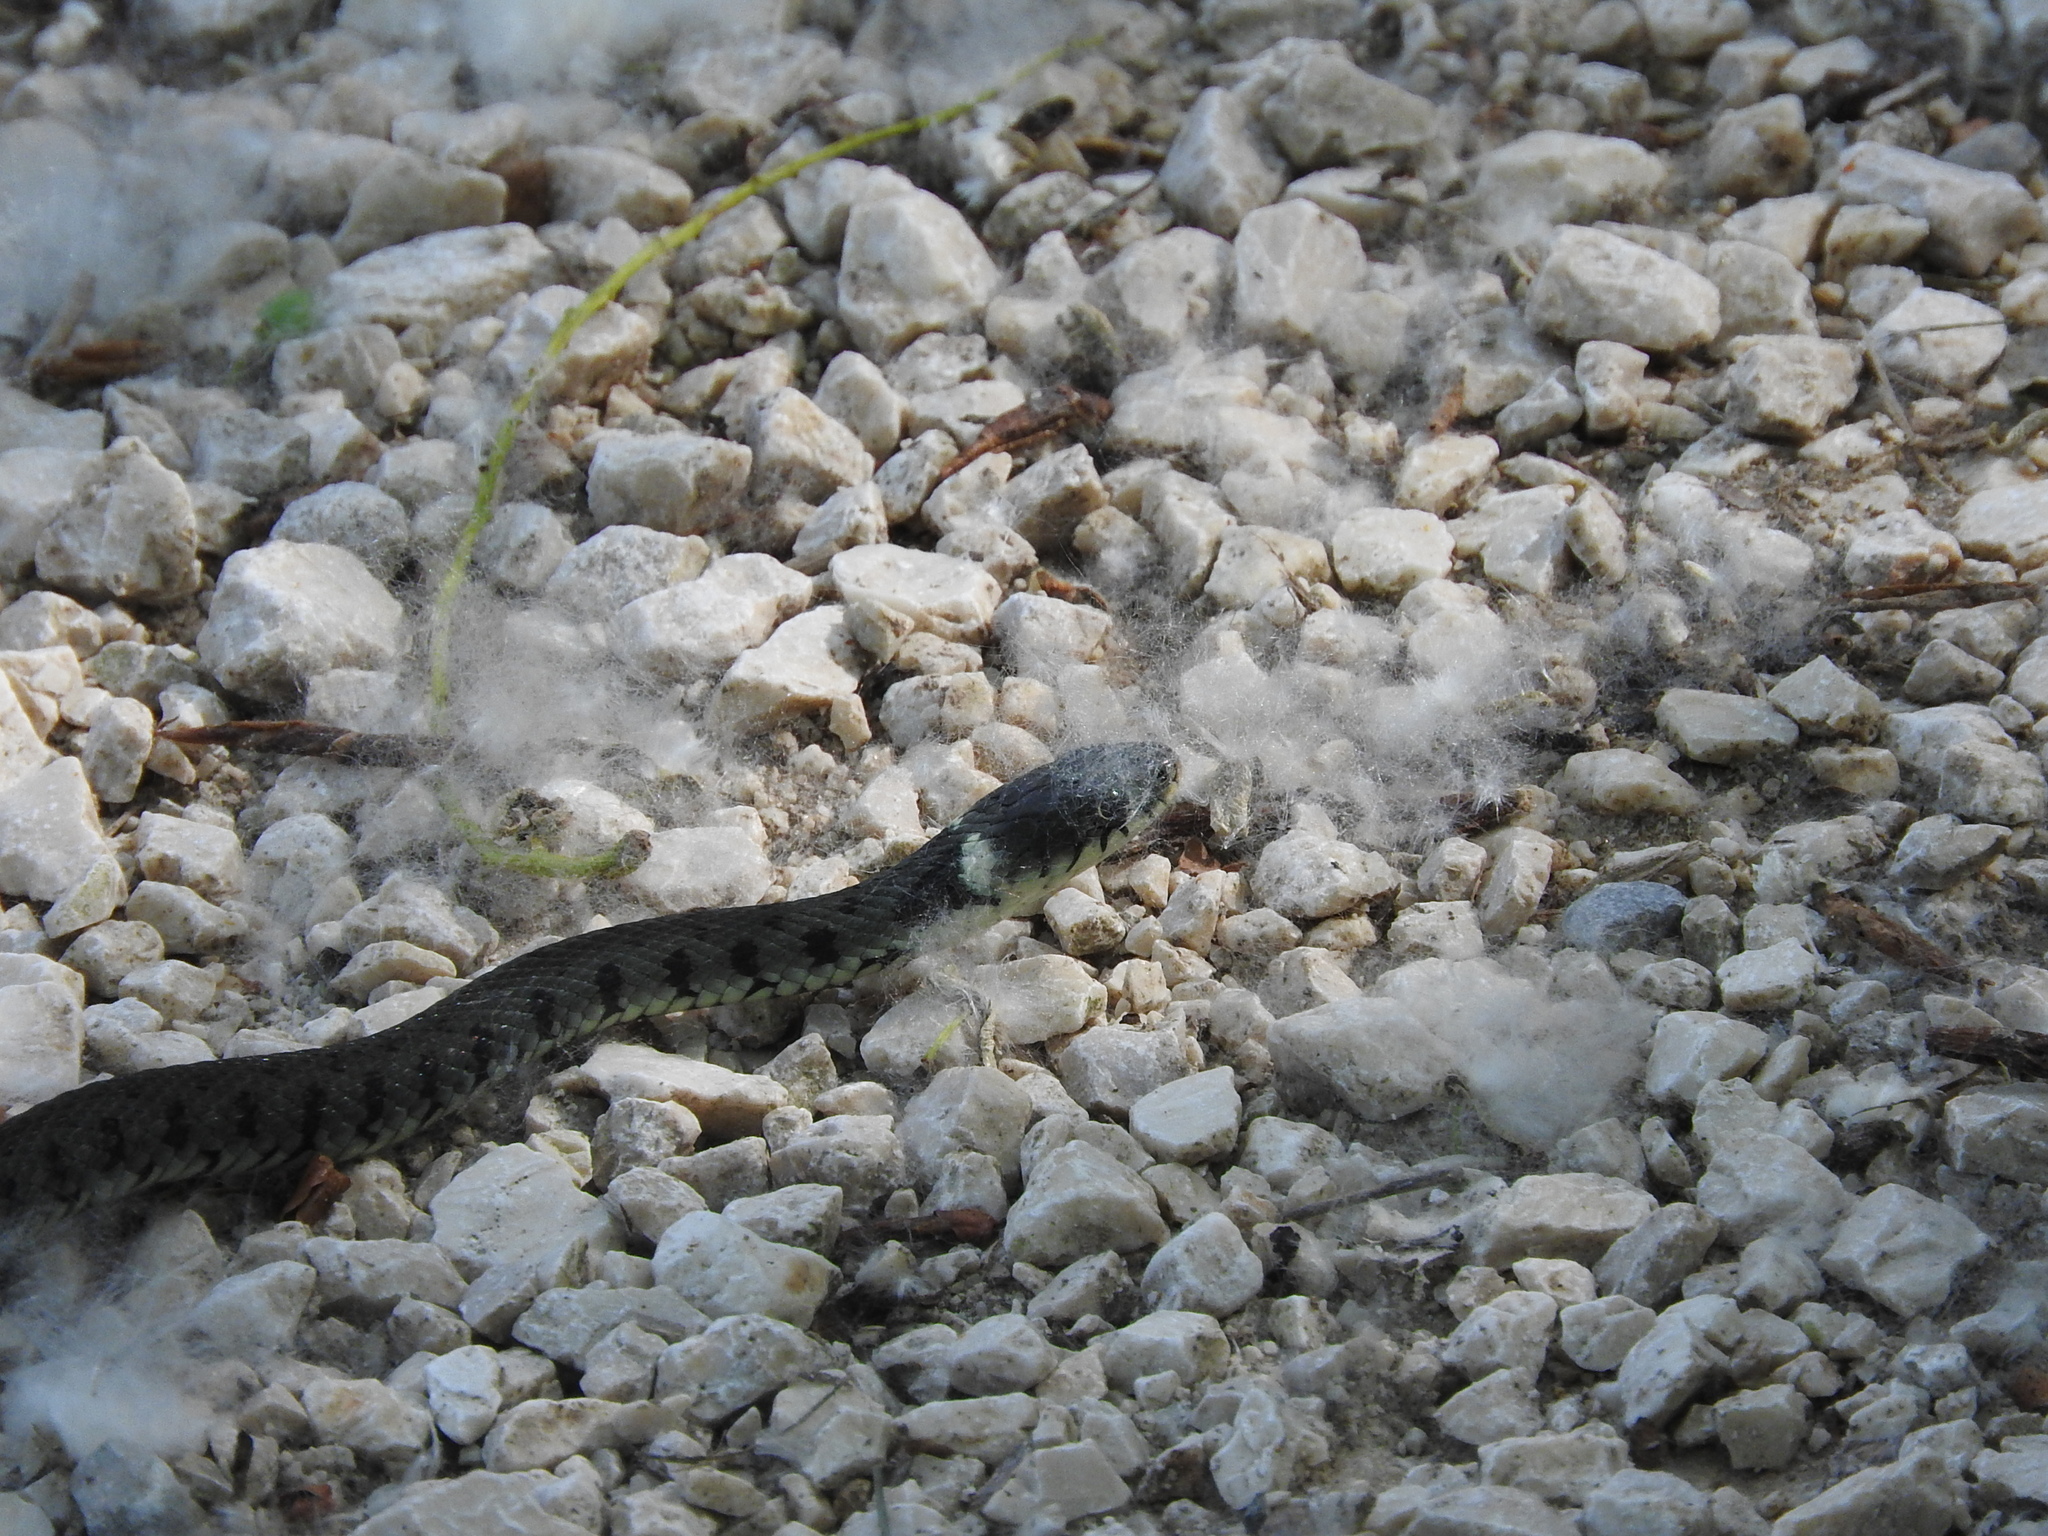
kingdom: Animalia
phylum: Chordata
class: Squamata
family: Colubridae
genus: Natrix
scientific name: Natrix helvetica
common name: Banded grass snake
